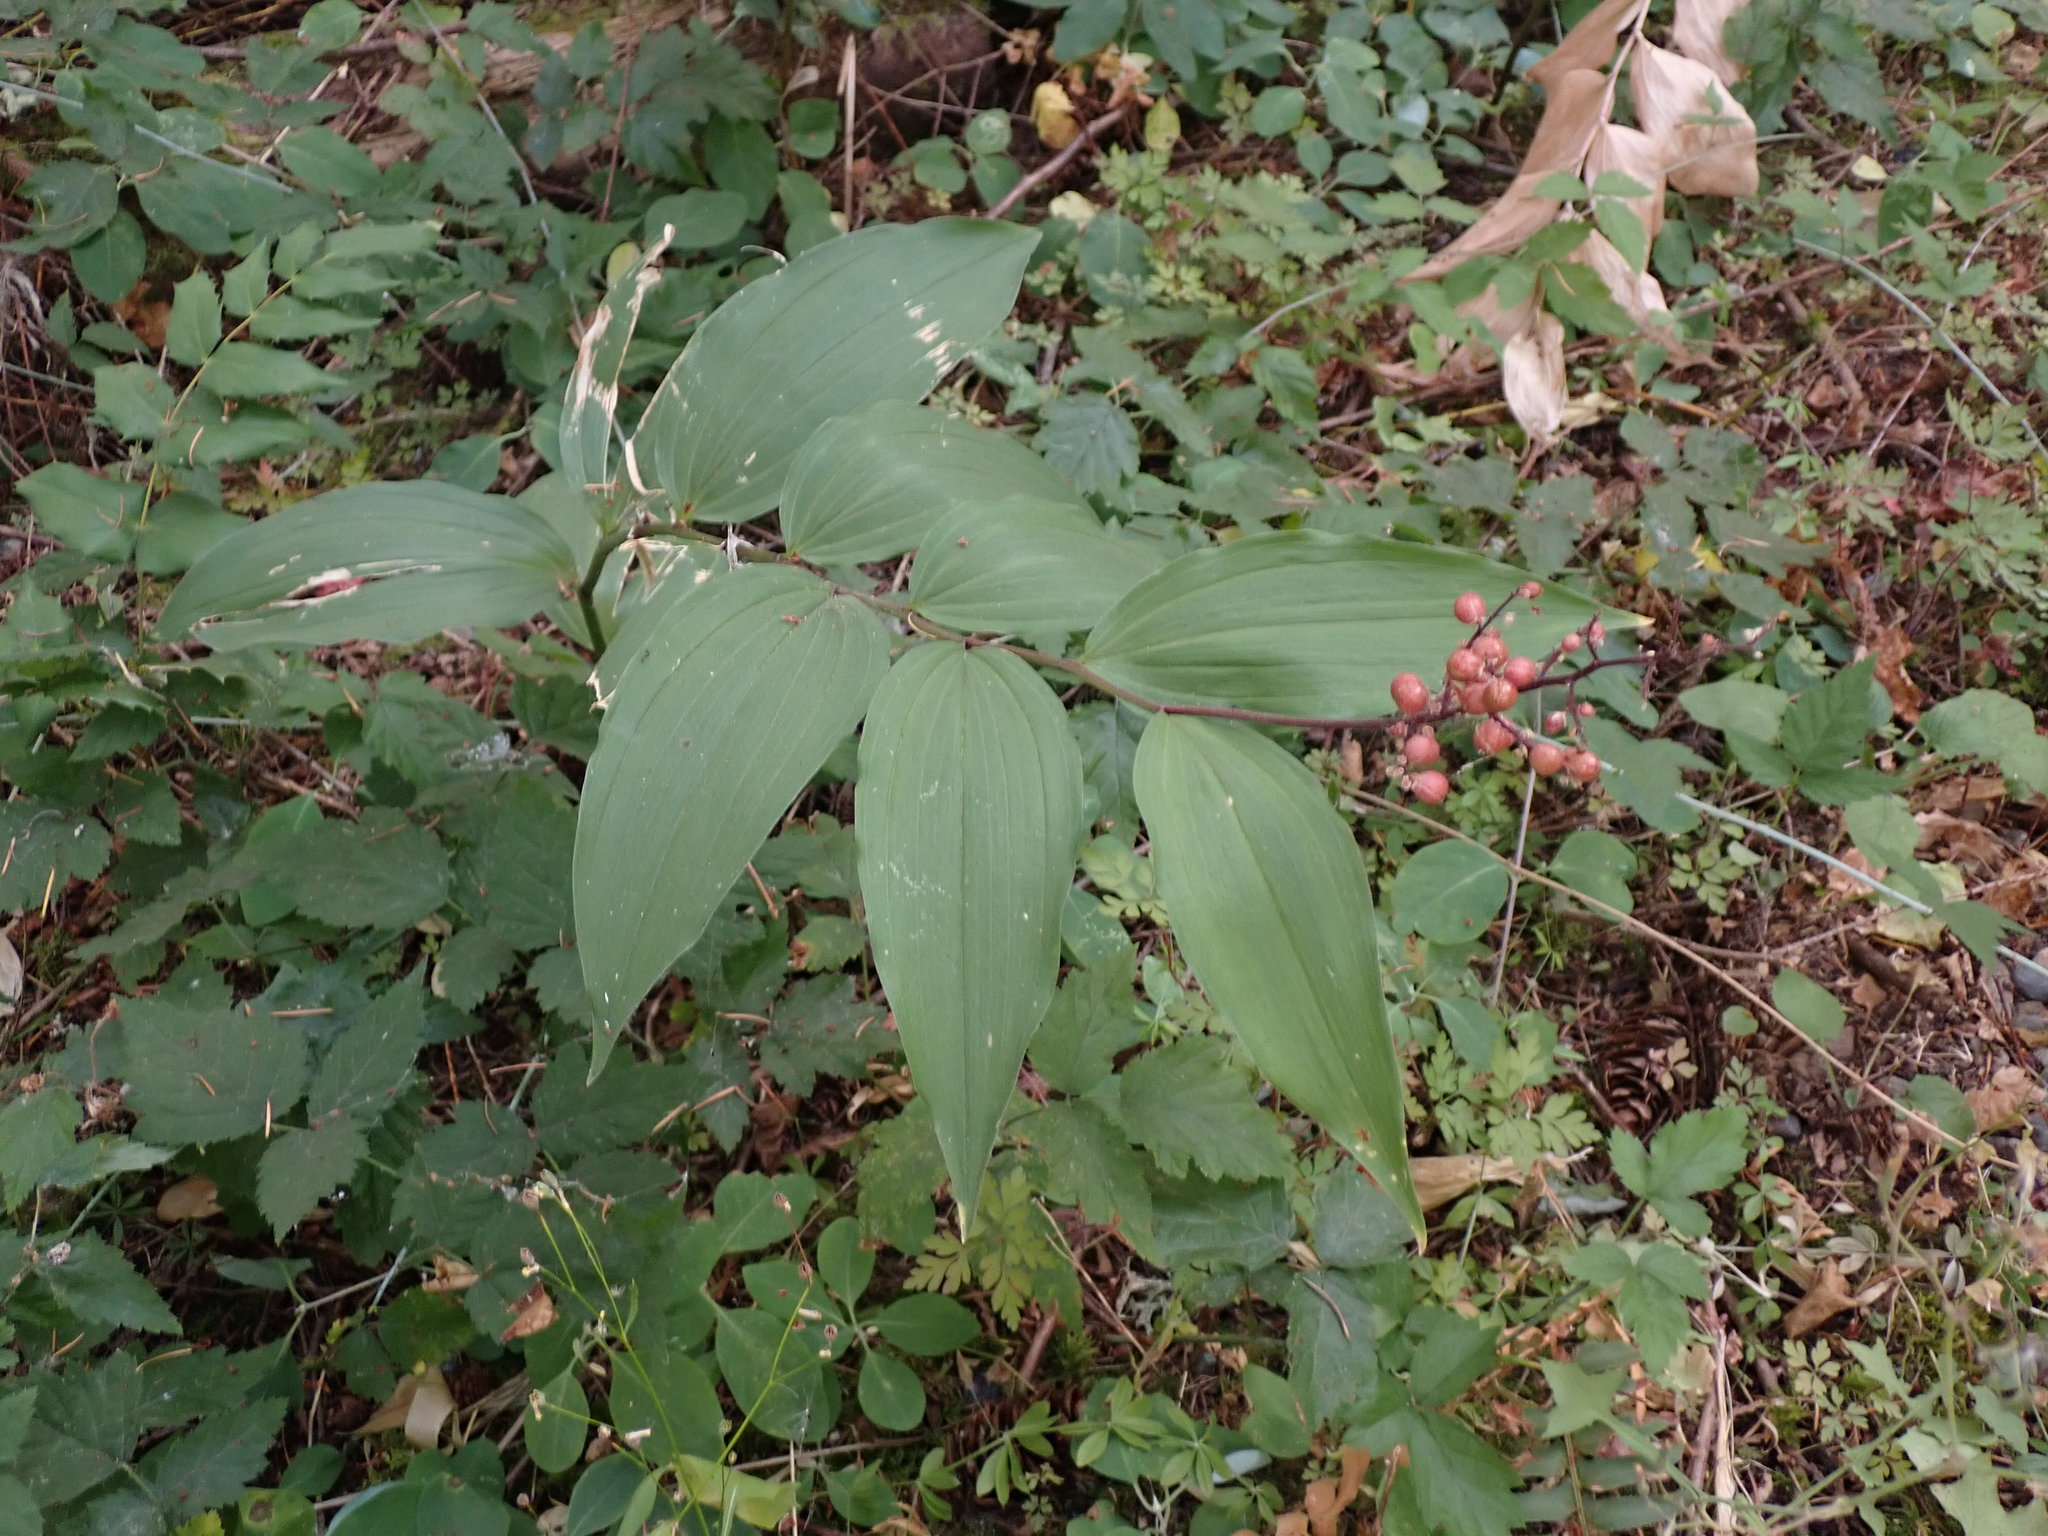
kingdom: Plantae
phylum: Tracheophyta
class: Liliopsida
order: Asparagales
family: Asparagaceae
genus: Maianthemum
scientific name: Maianthemum racemosum
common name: False spikenard
